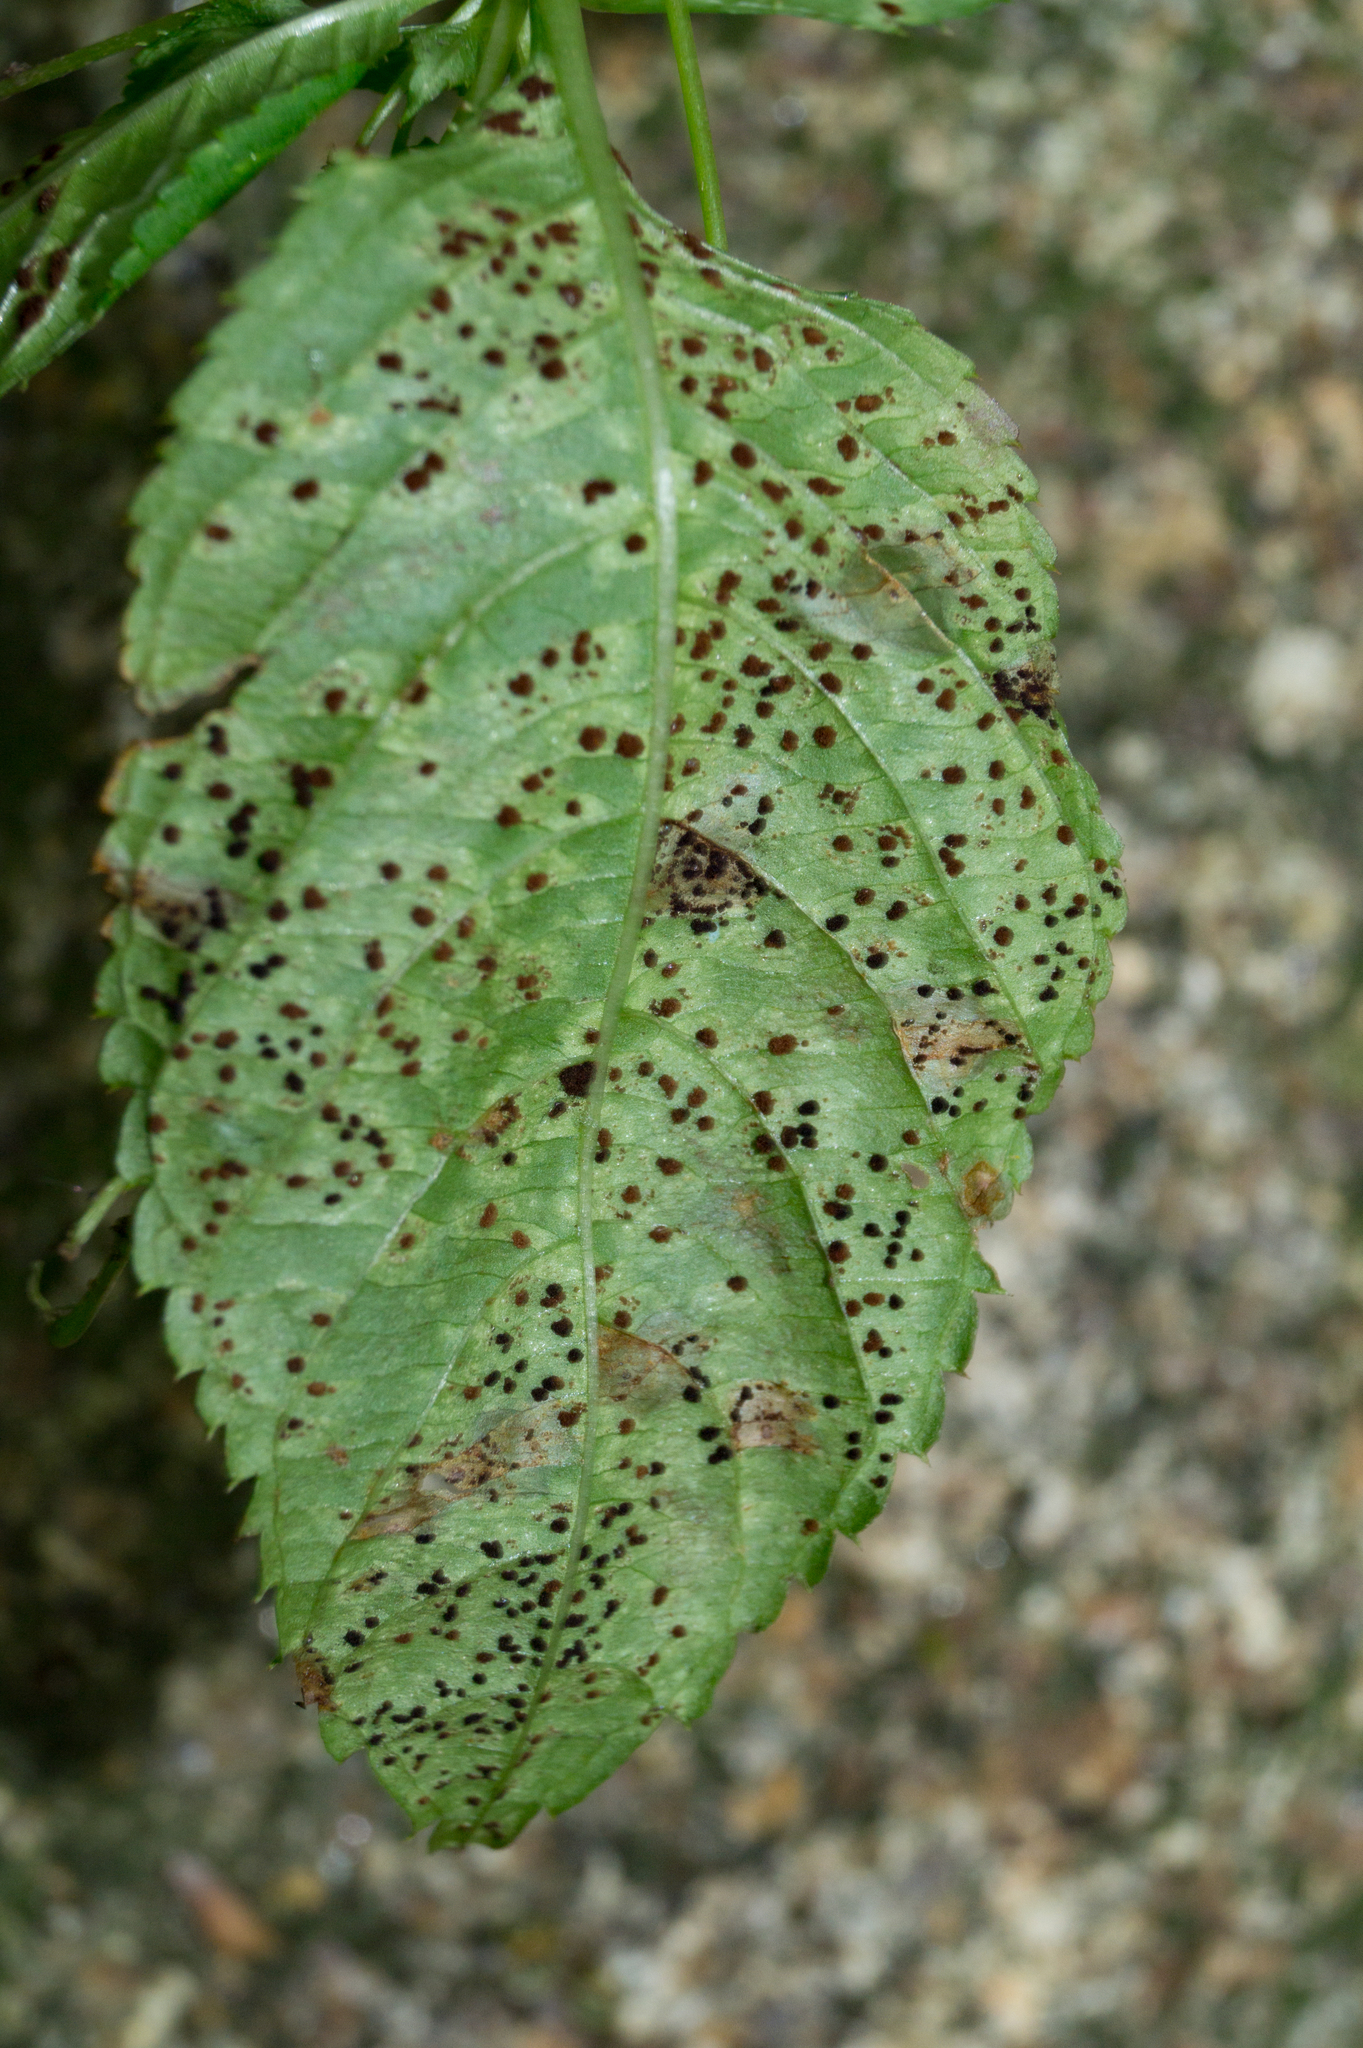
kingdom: Fungi
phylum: Basidiomycota
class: Pucciniomycetes
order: Pucciniales
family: Pucciniaceae
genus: Puccinia
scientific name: Puccinia komarovii
